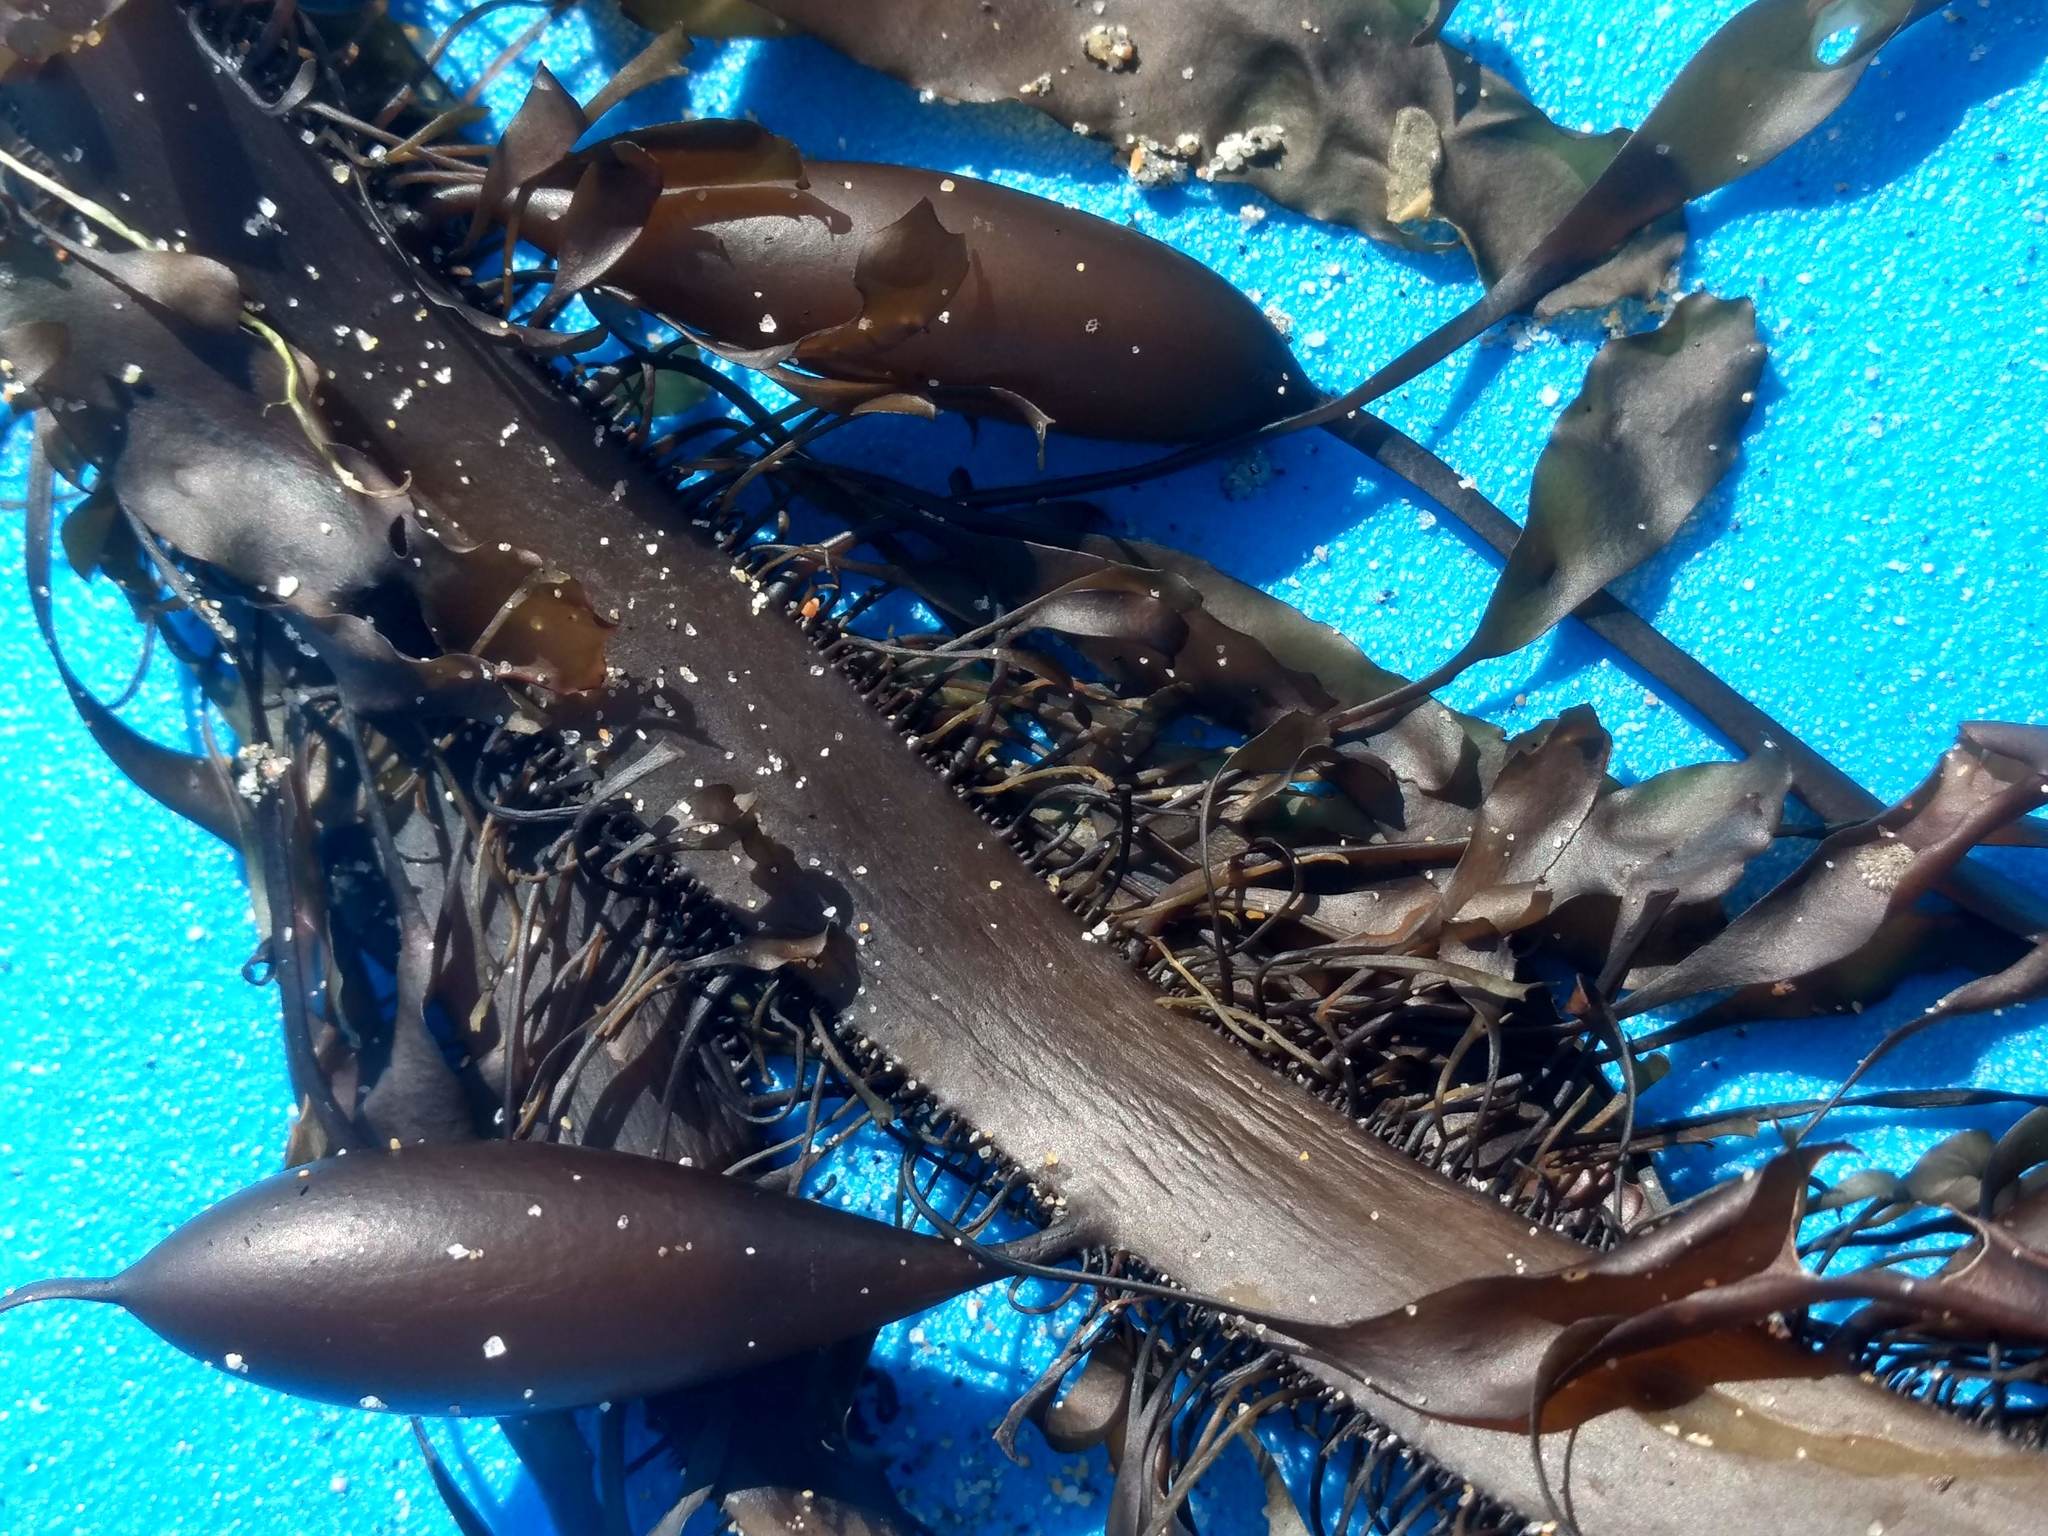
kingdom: Chromista
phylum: Ochrophyta
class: Phaeophyceae
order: Laminariales
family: Lessoniaceae
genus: Egregia
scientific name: Egregia menziesii
